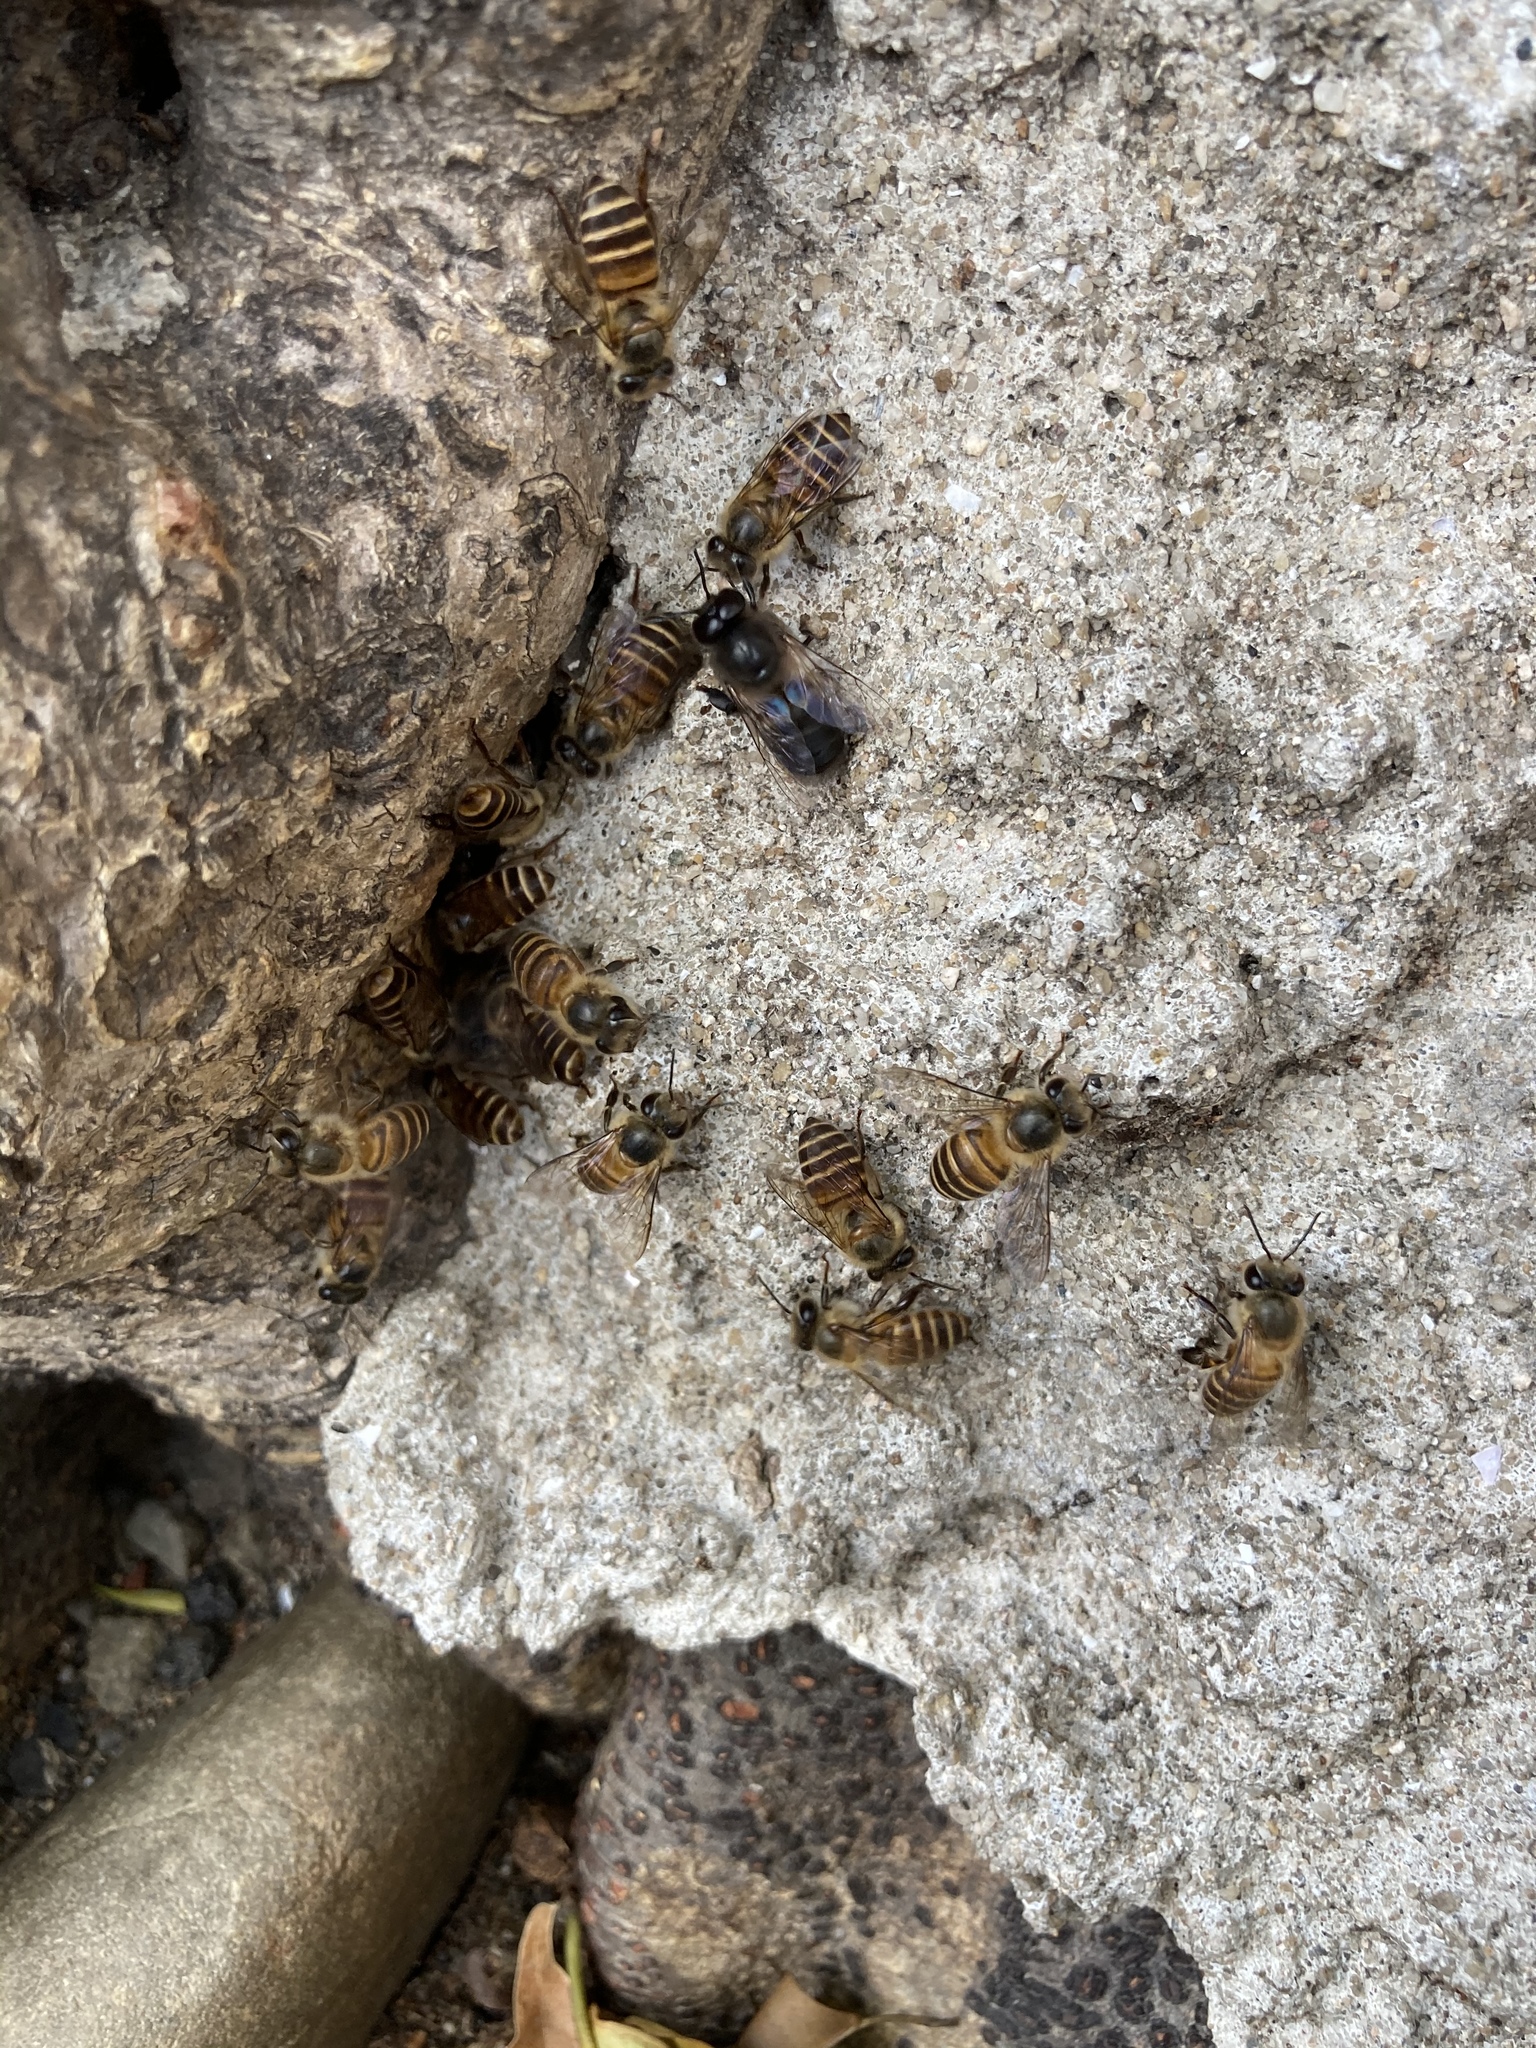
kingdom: Animalia
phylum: Arthropoda
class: Insecta
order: Hymenoptera
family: Apidae
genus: Apis
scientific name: Apis cerana
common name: Honey bee
